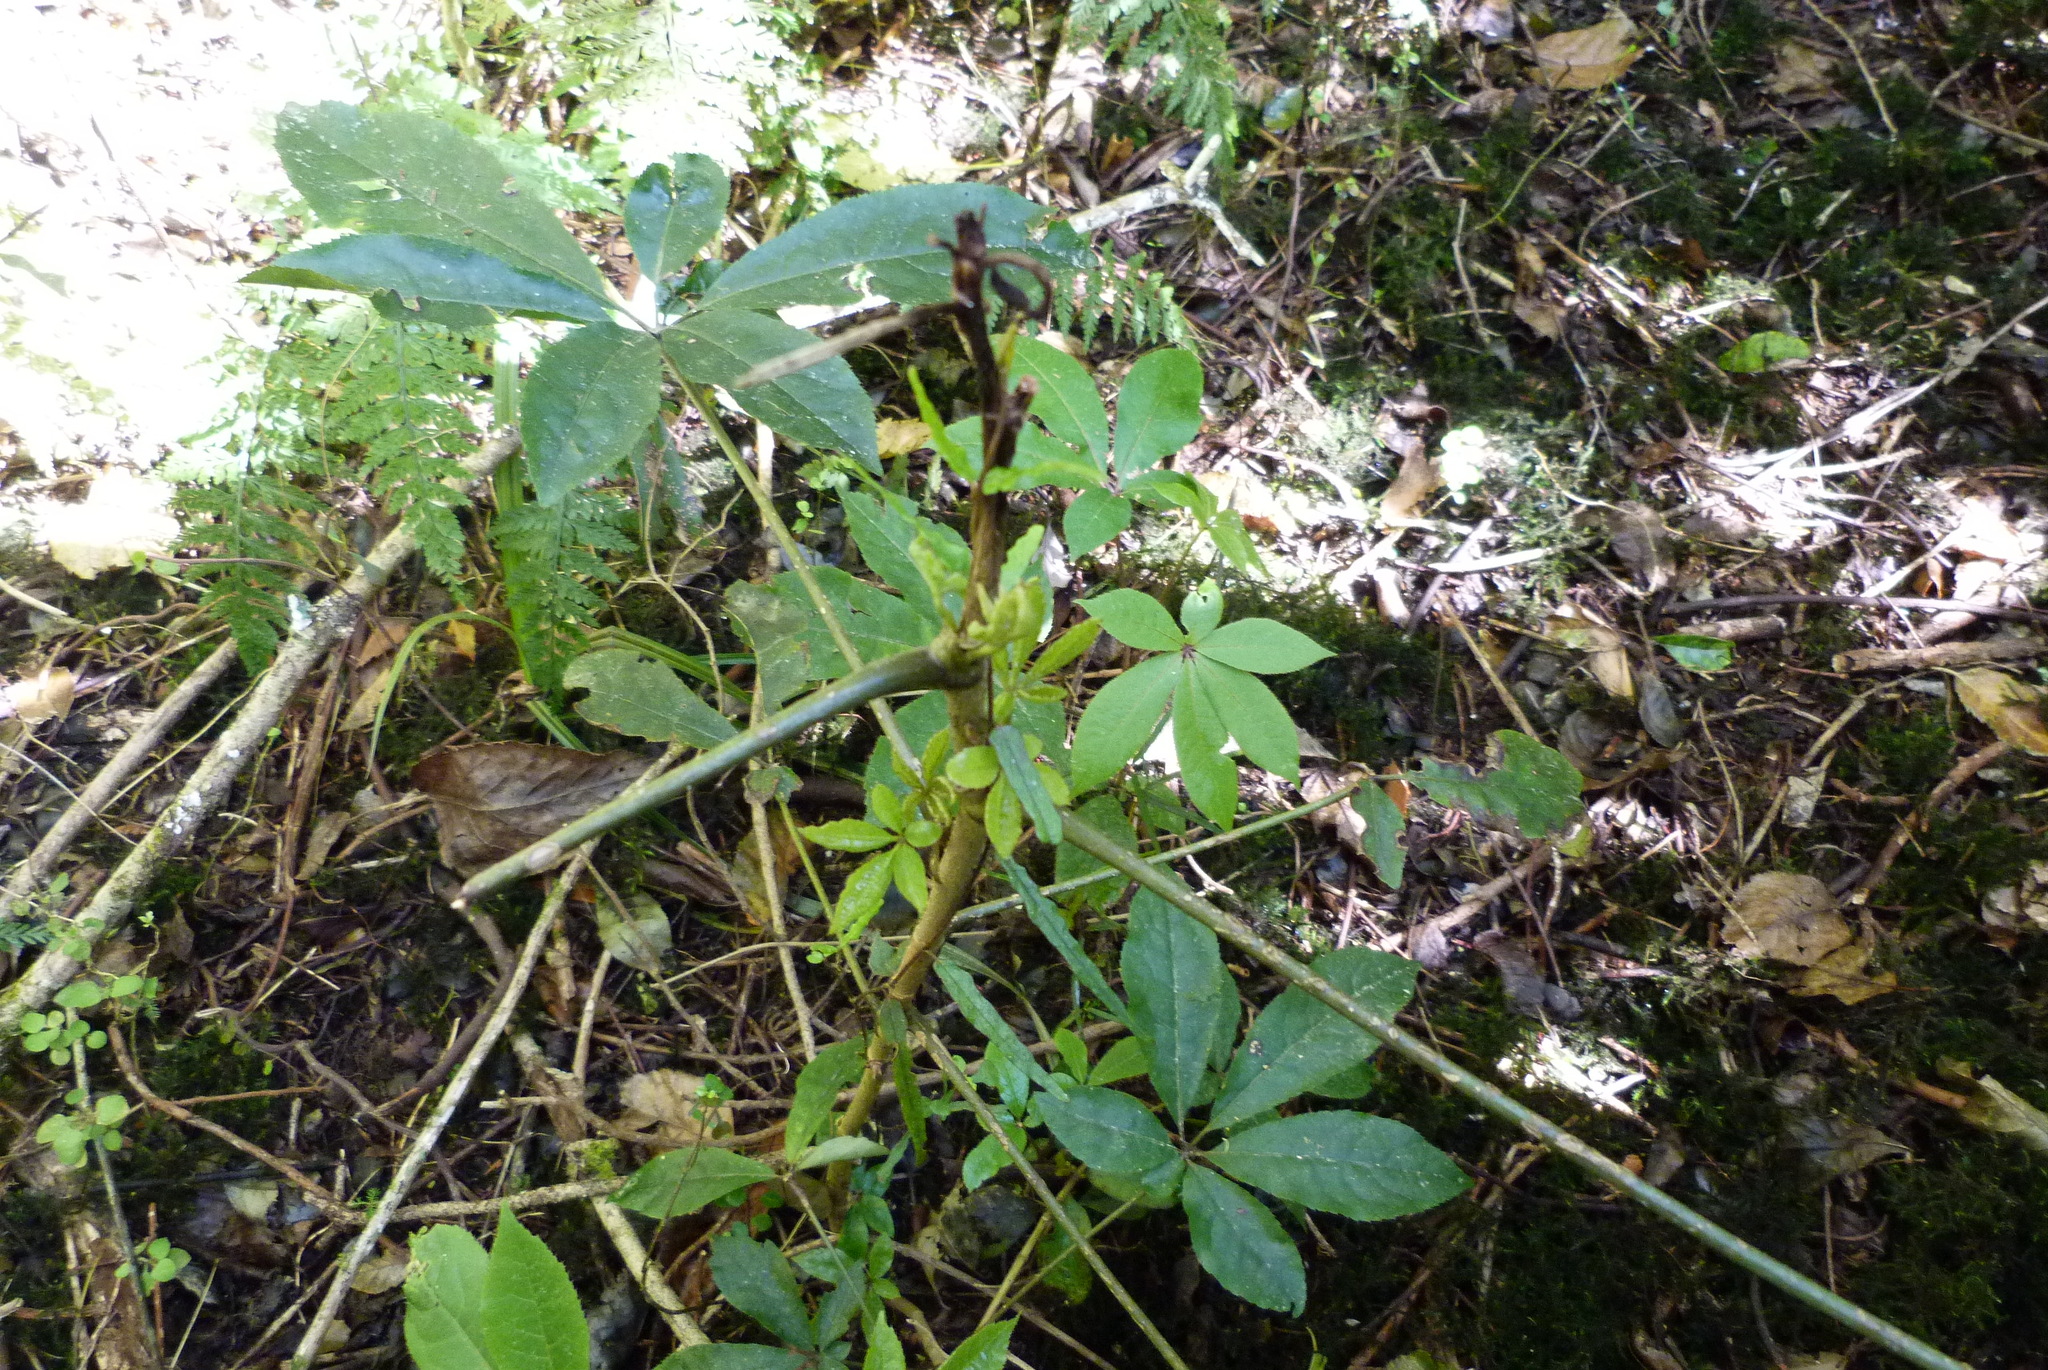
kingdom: Plantae
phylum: Tracheophyta
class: Magnoliopsida
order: Apiales
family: Araliaceae
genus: Schefflera
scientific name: Schefflera digitata
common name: Pate
